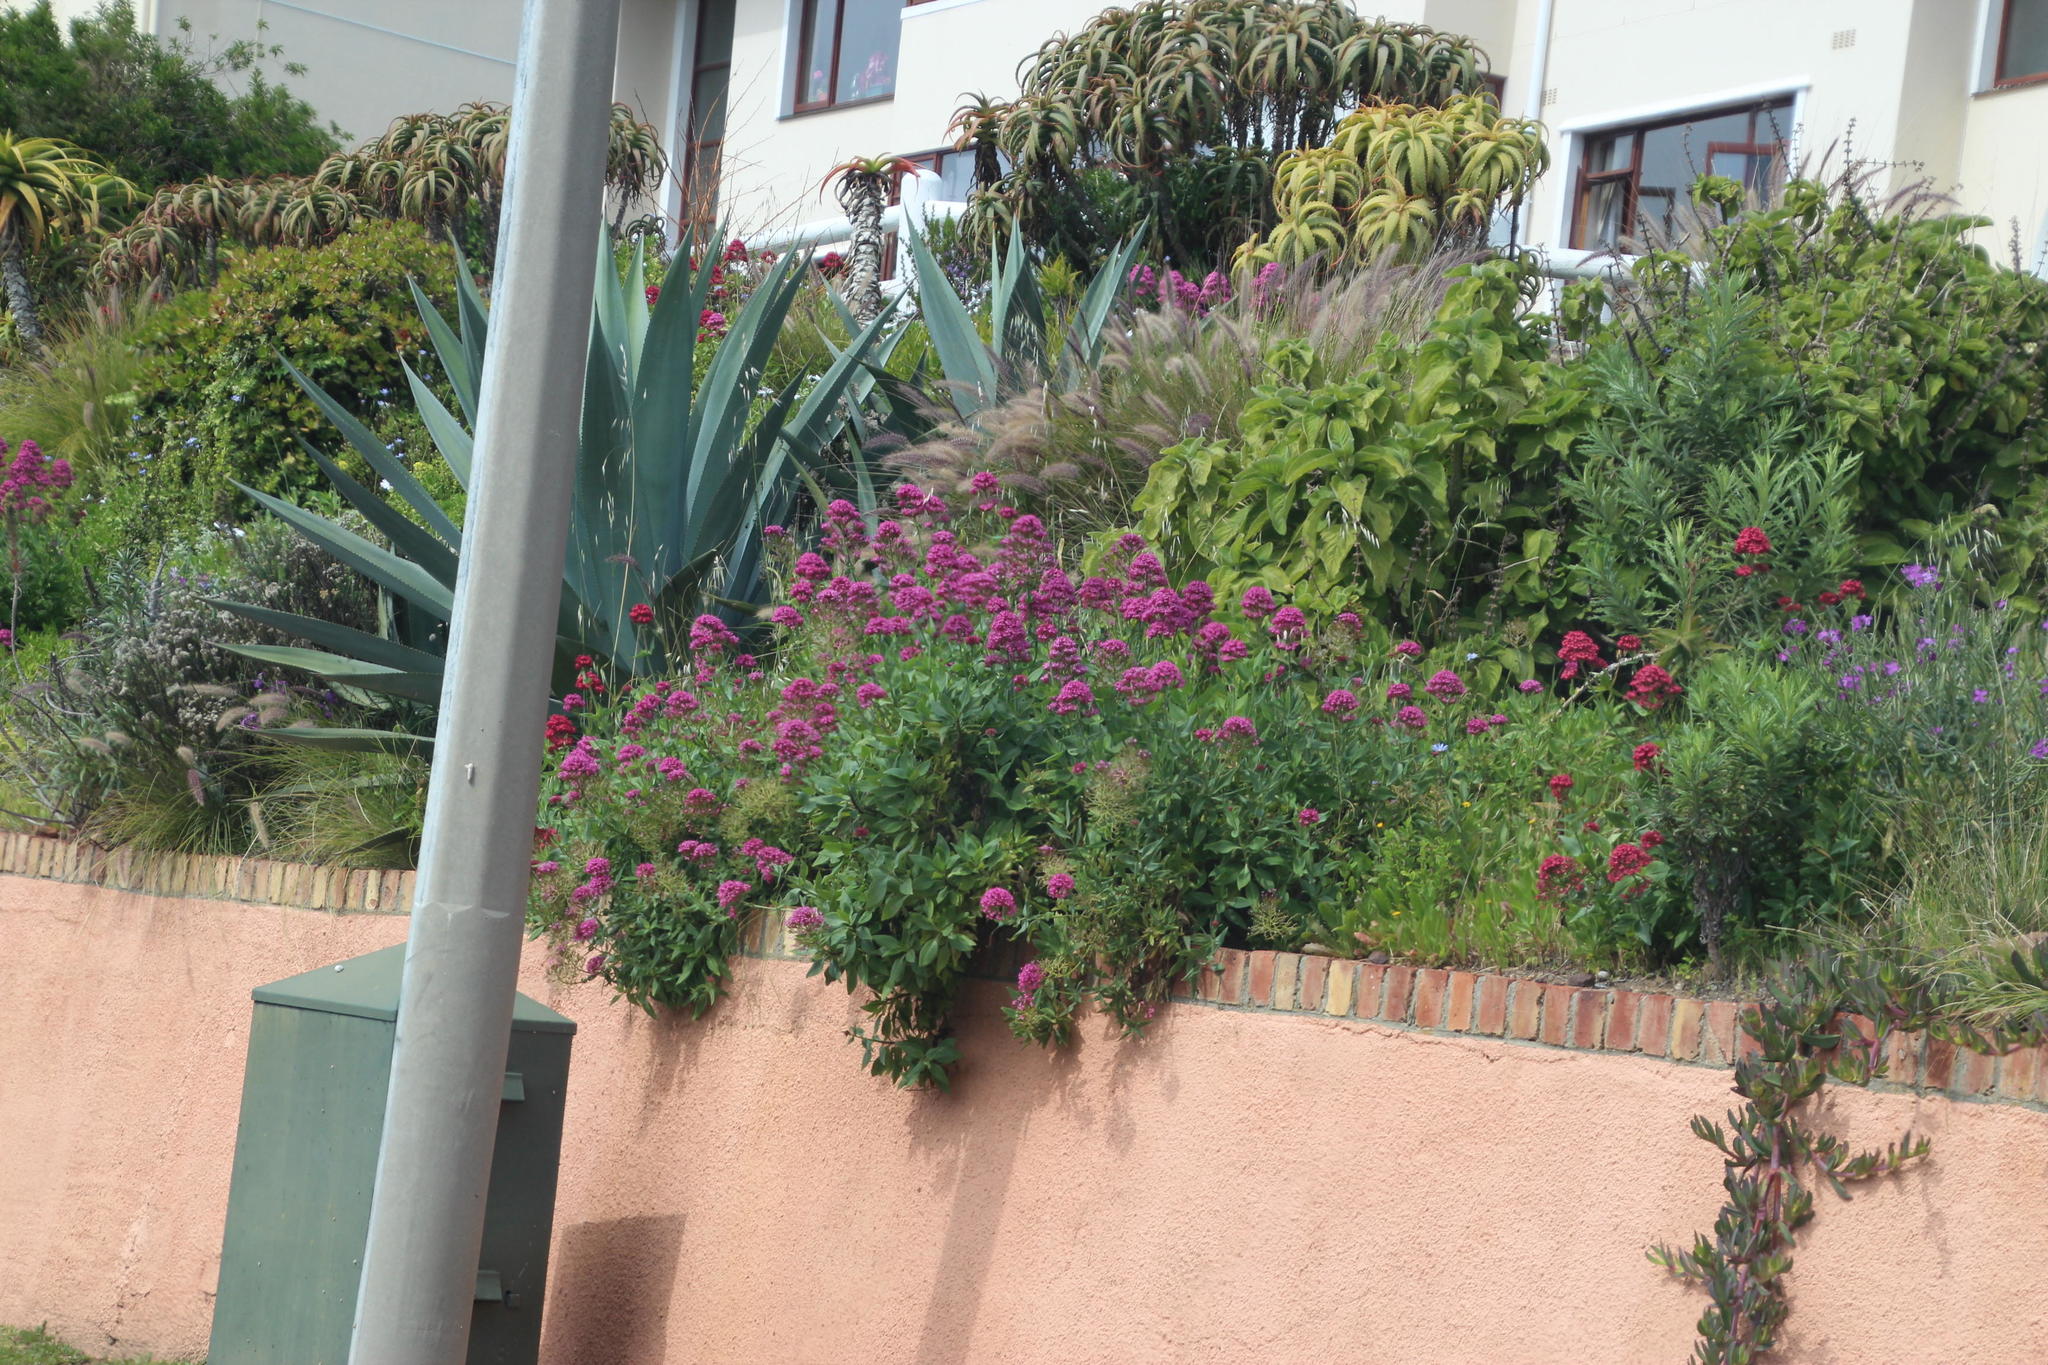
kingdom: Plantae
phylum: Tracheophyta
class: Magnoliopsida
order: Dipsacales
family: Caprifoliaceae
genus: Centranthus
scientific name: Centranthus ruber
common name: Red valerian
